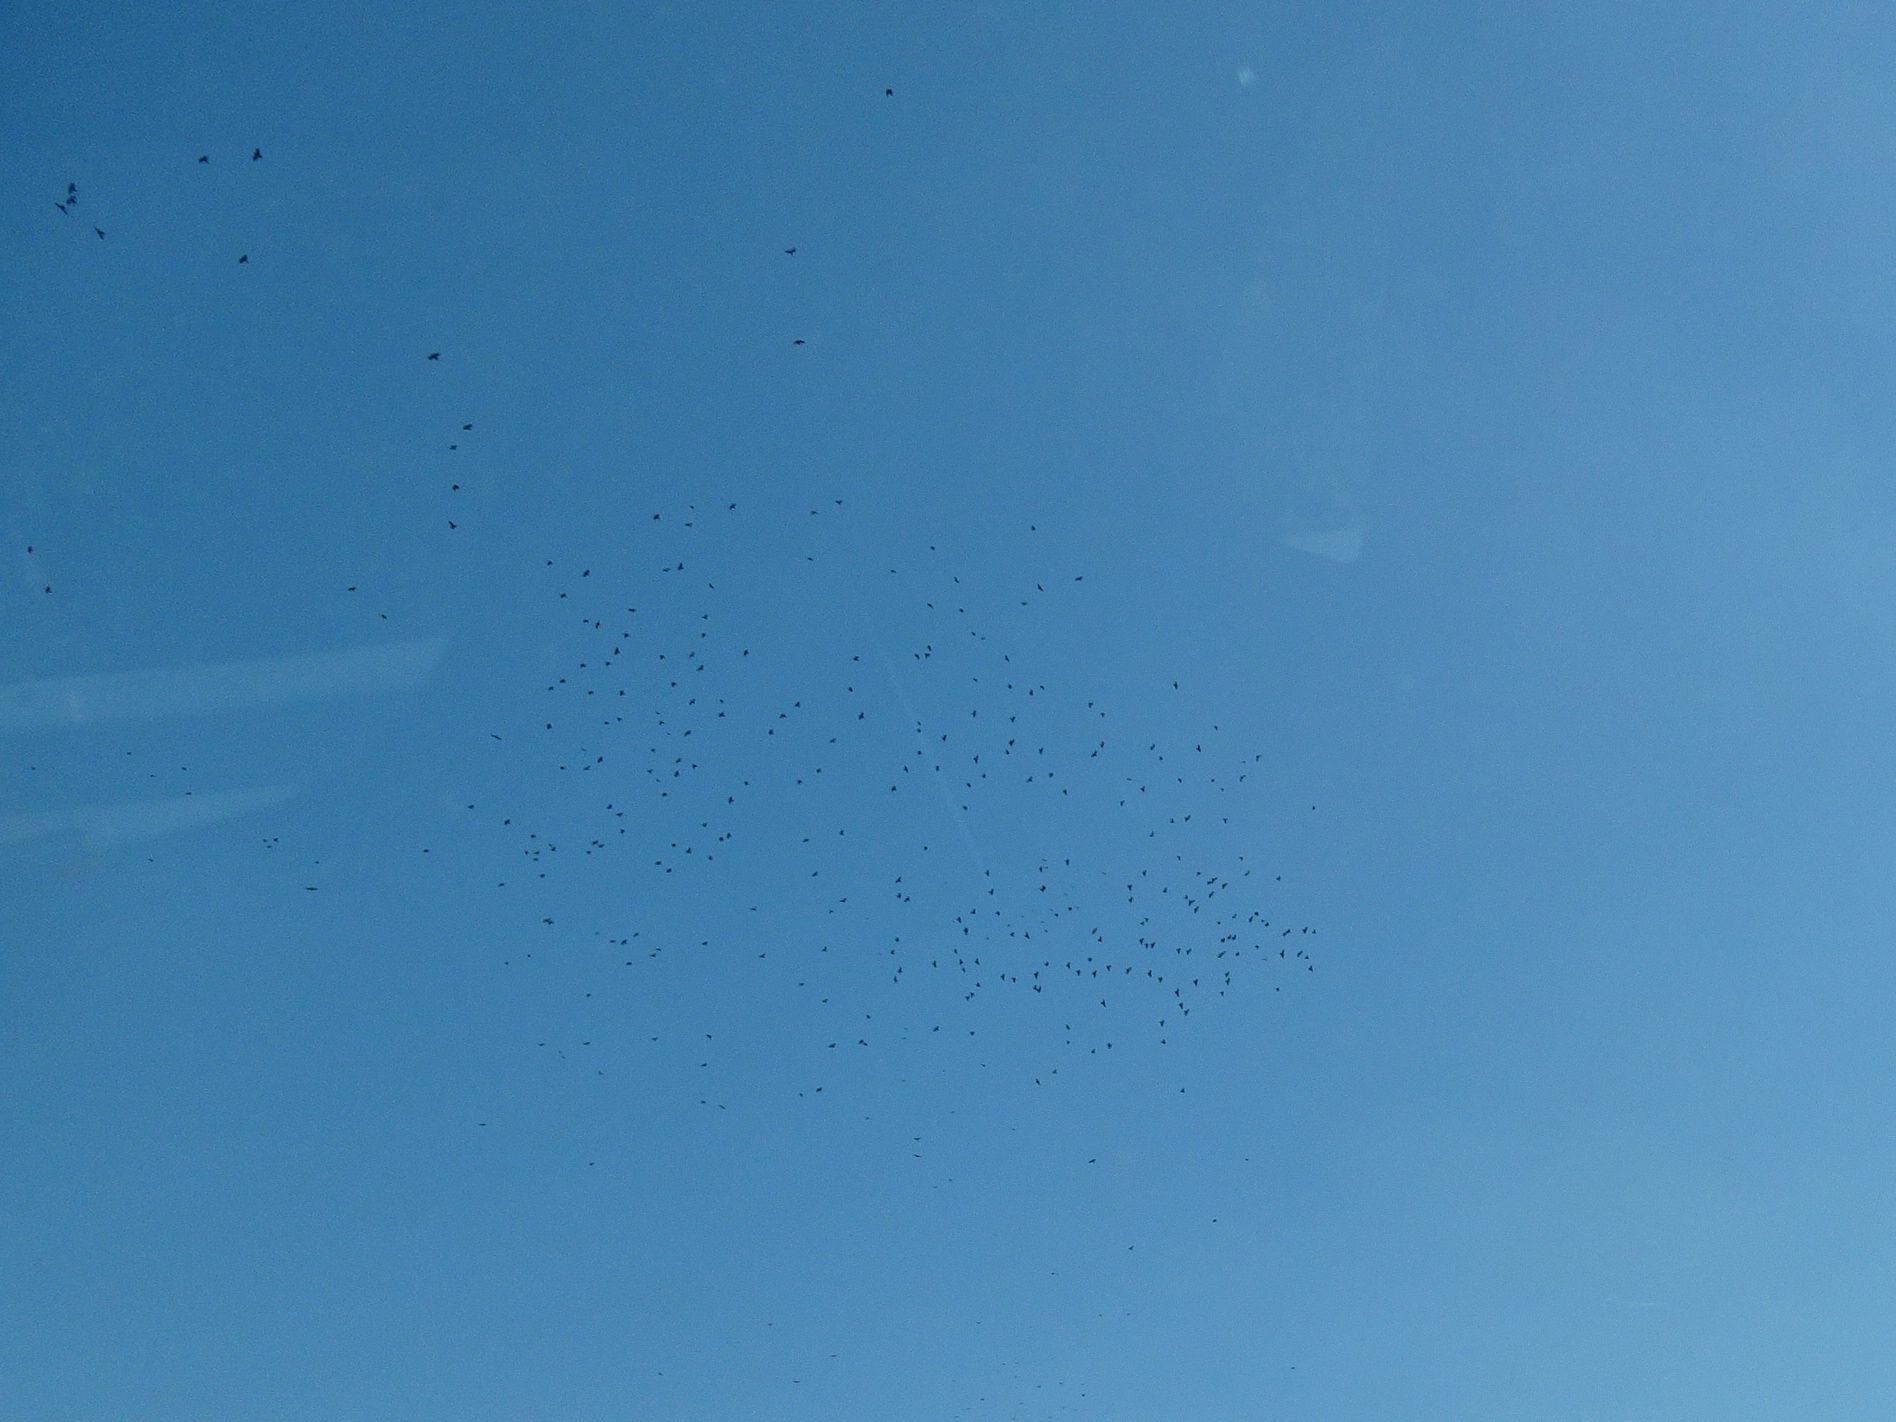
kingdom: Animalia
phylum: Chordata
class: Aves
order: Passeriformes
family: Corvidae
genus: Corvus
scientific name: Corvus
